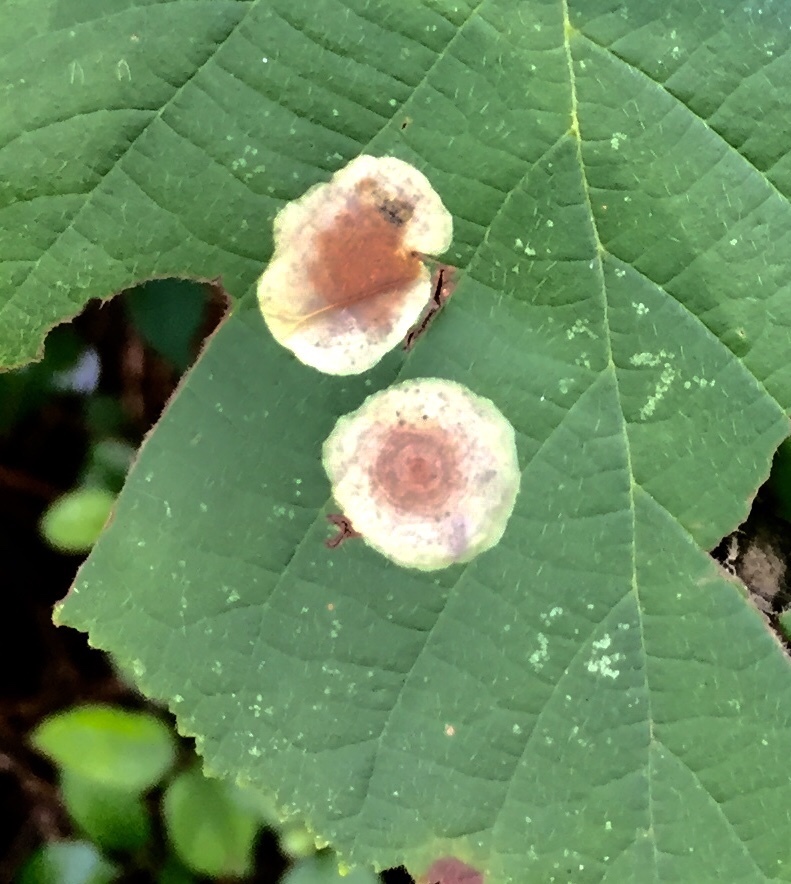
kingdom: Animalia
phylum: Arthropoda
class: Insecta
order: Lepidoptera
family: Gracillariidae
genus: Cameraria
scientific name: Cameraria hamameliella
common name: Witchhazel leafminer
